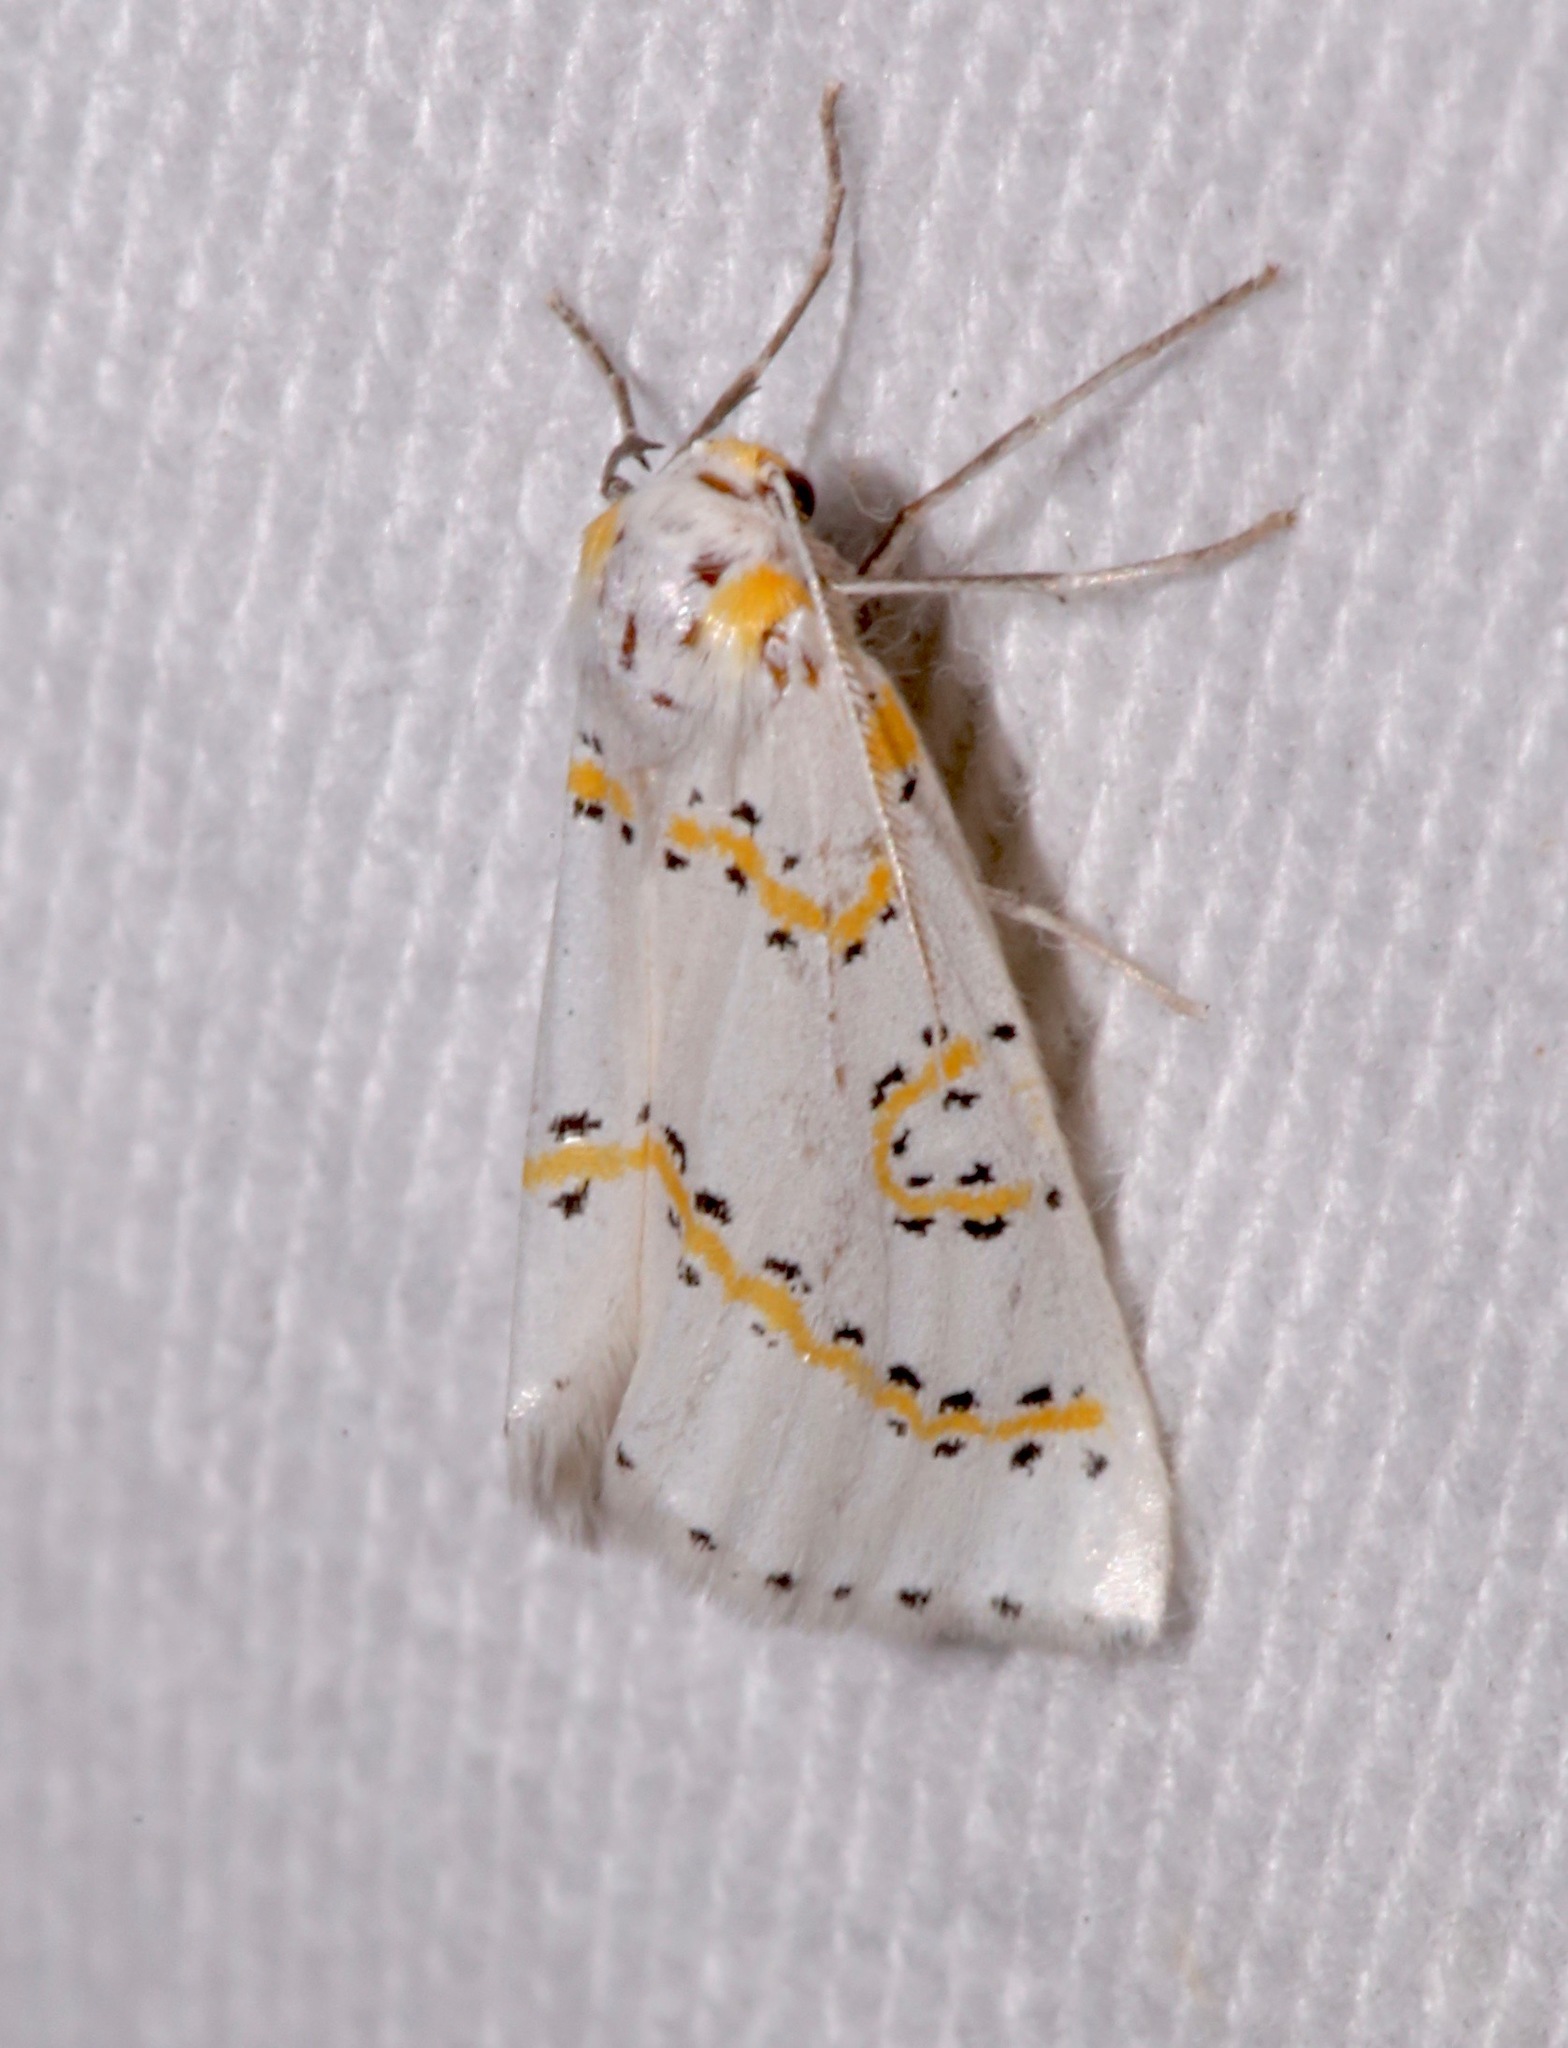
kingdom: Animalia
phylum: Arthropoda
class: Insecta
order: Lepidoptera
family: Geometridae
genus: Philtraea
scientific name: Philtraea paucimacula
